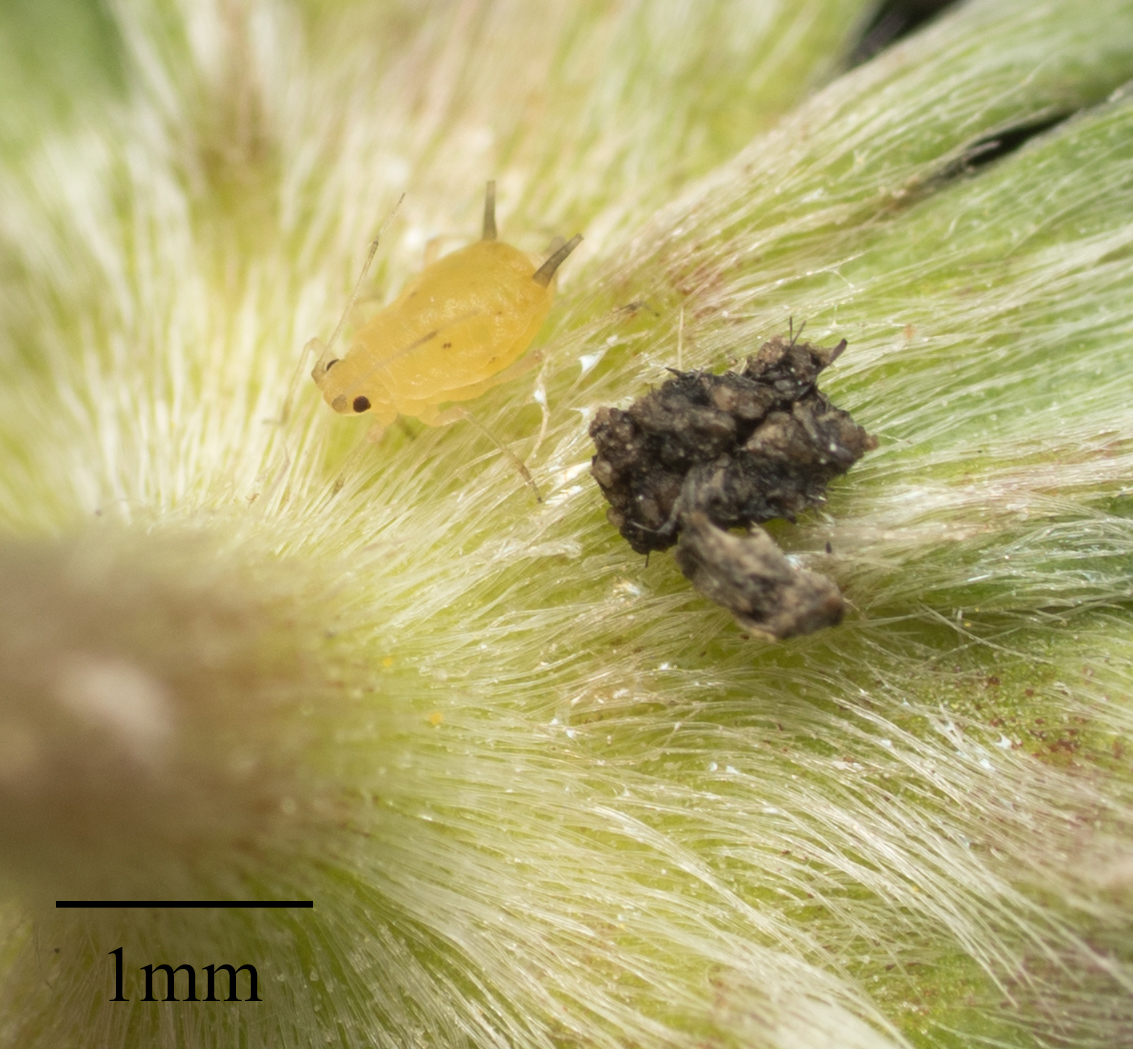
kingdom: Animalia
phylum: Arthropoda
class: Insecta
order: Hemiptera
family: Aphididae
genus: Aphis
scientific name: Aphis gossypii
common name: Melon aphid
